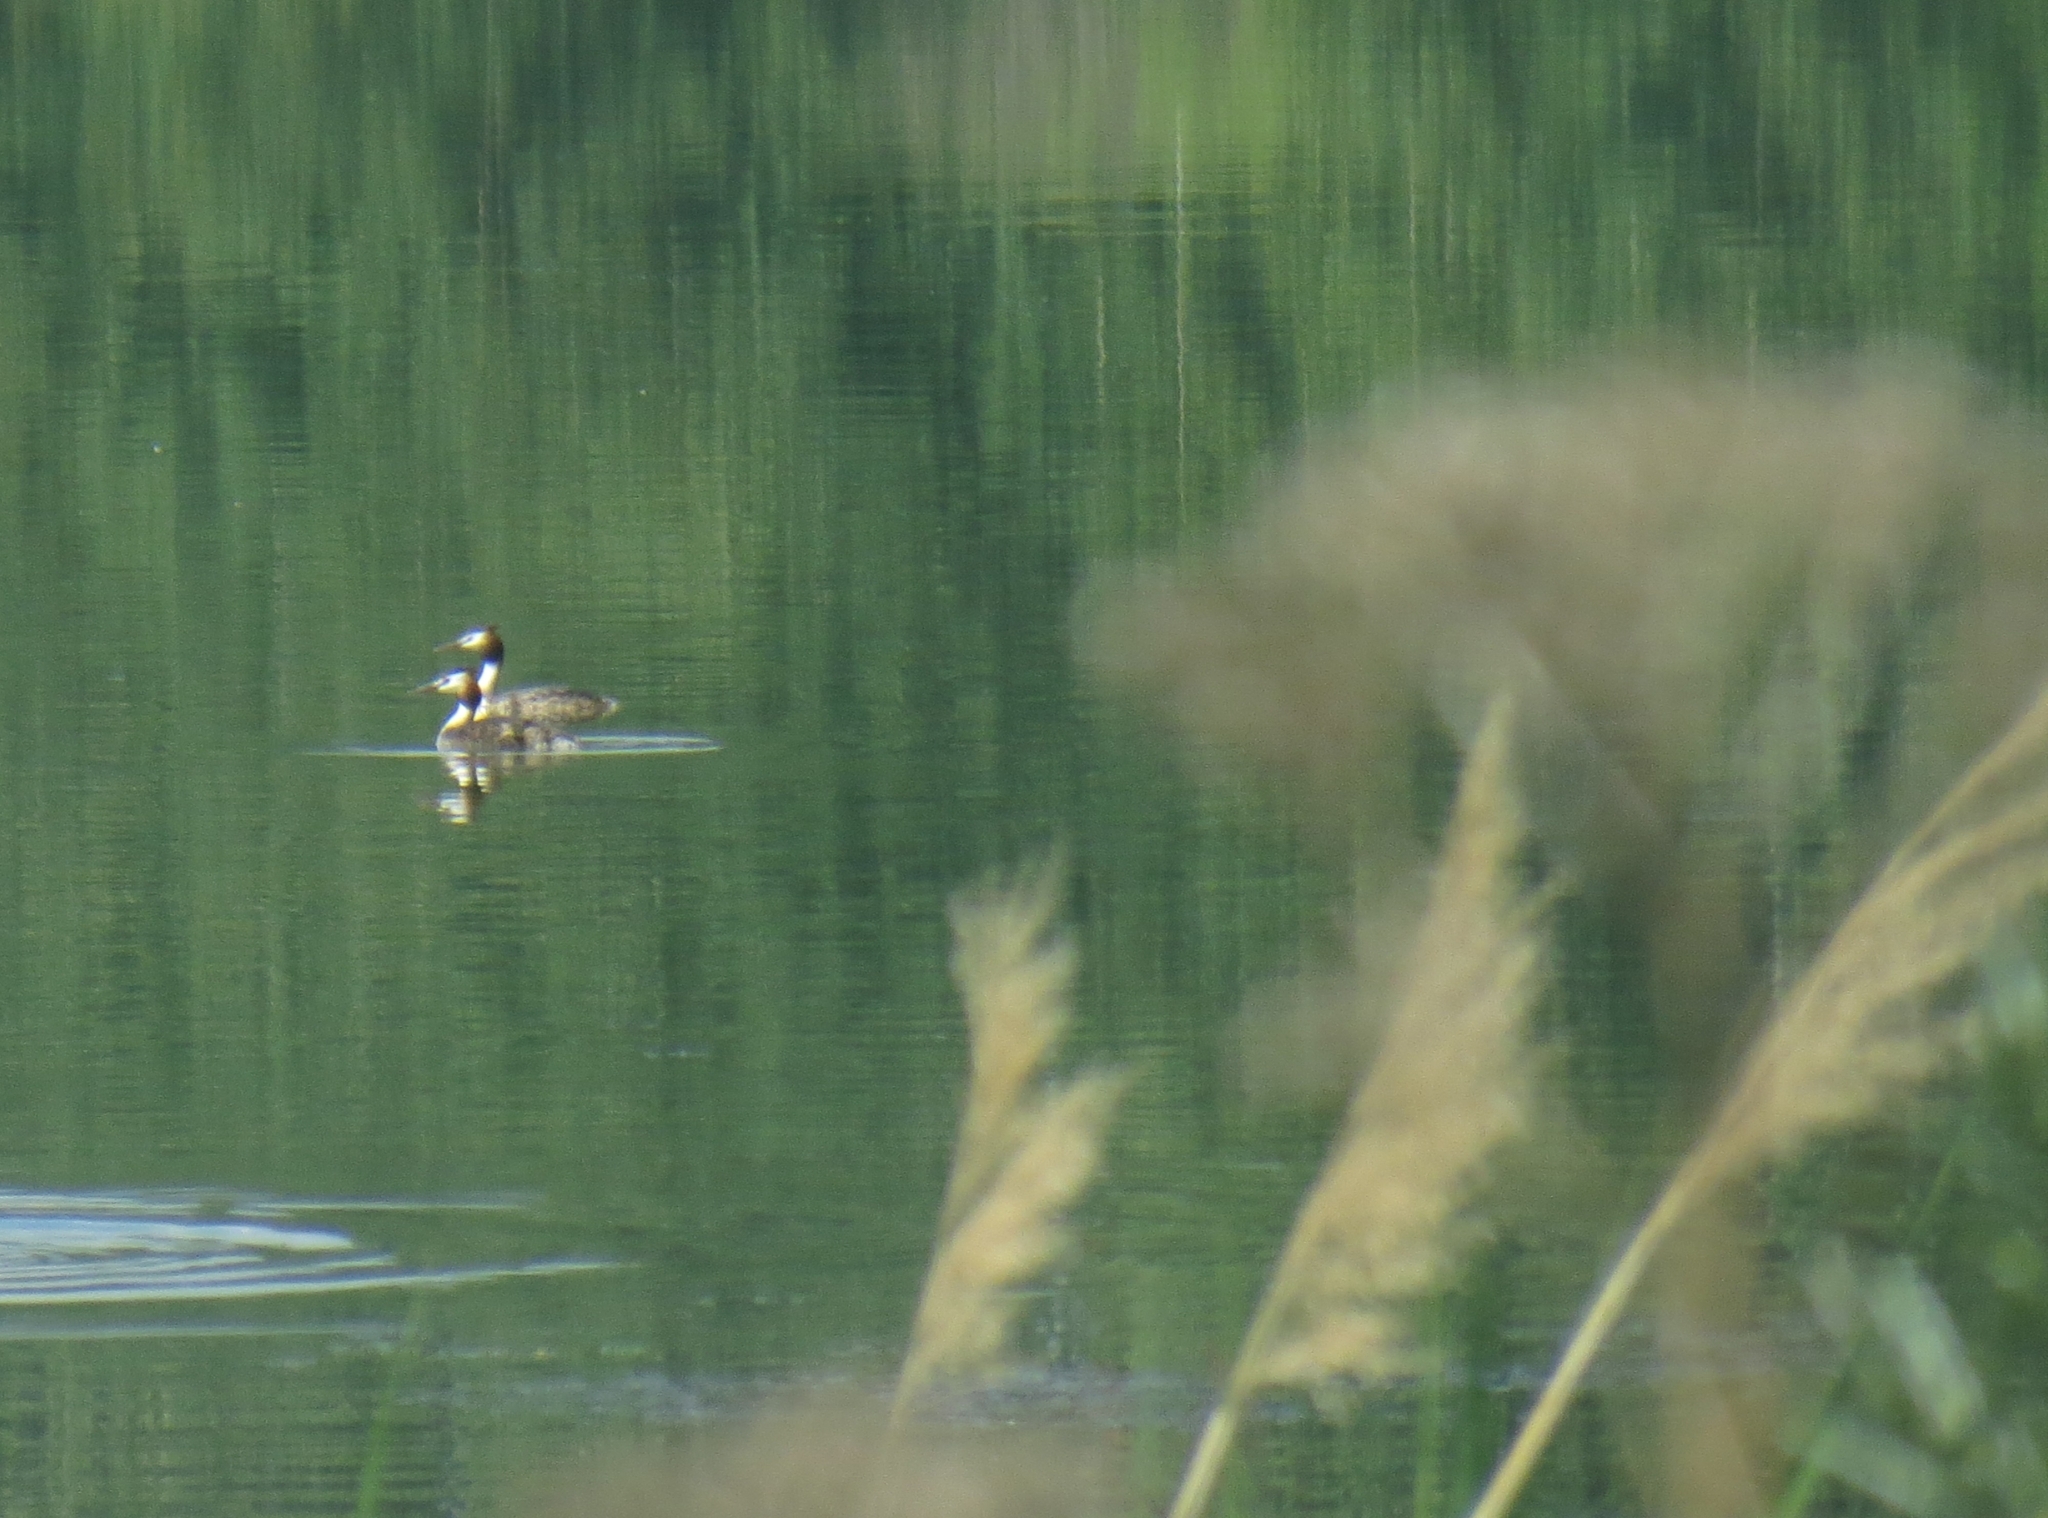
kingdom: Animalia
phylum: Chordata
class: Aves
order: Podicipediformes
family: Podicipedidae
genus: Podiceps
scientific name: Podiceps cristatus
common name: Great crested grebe
